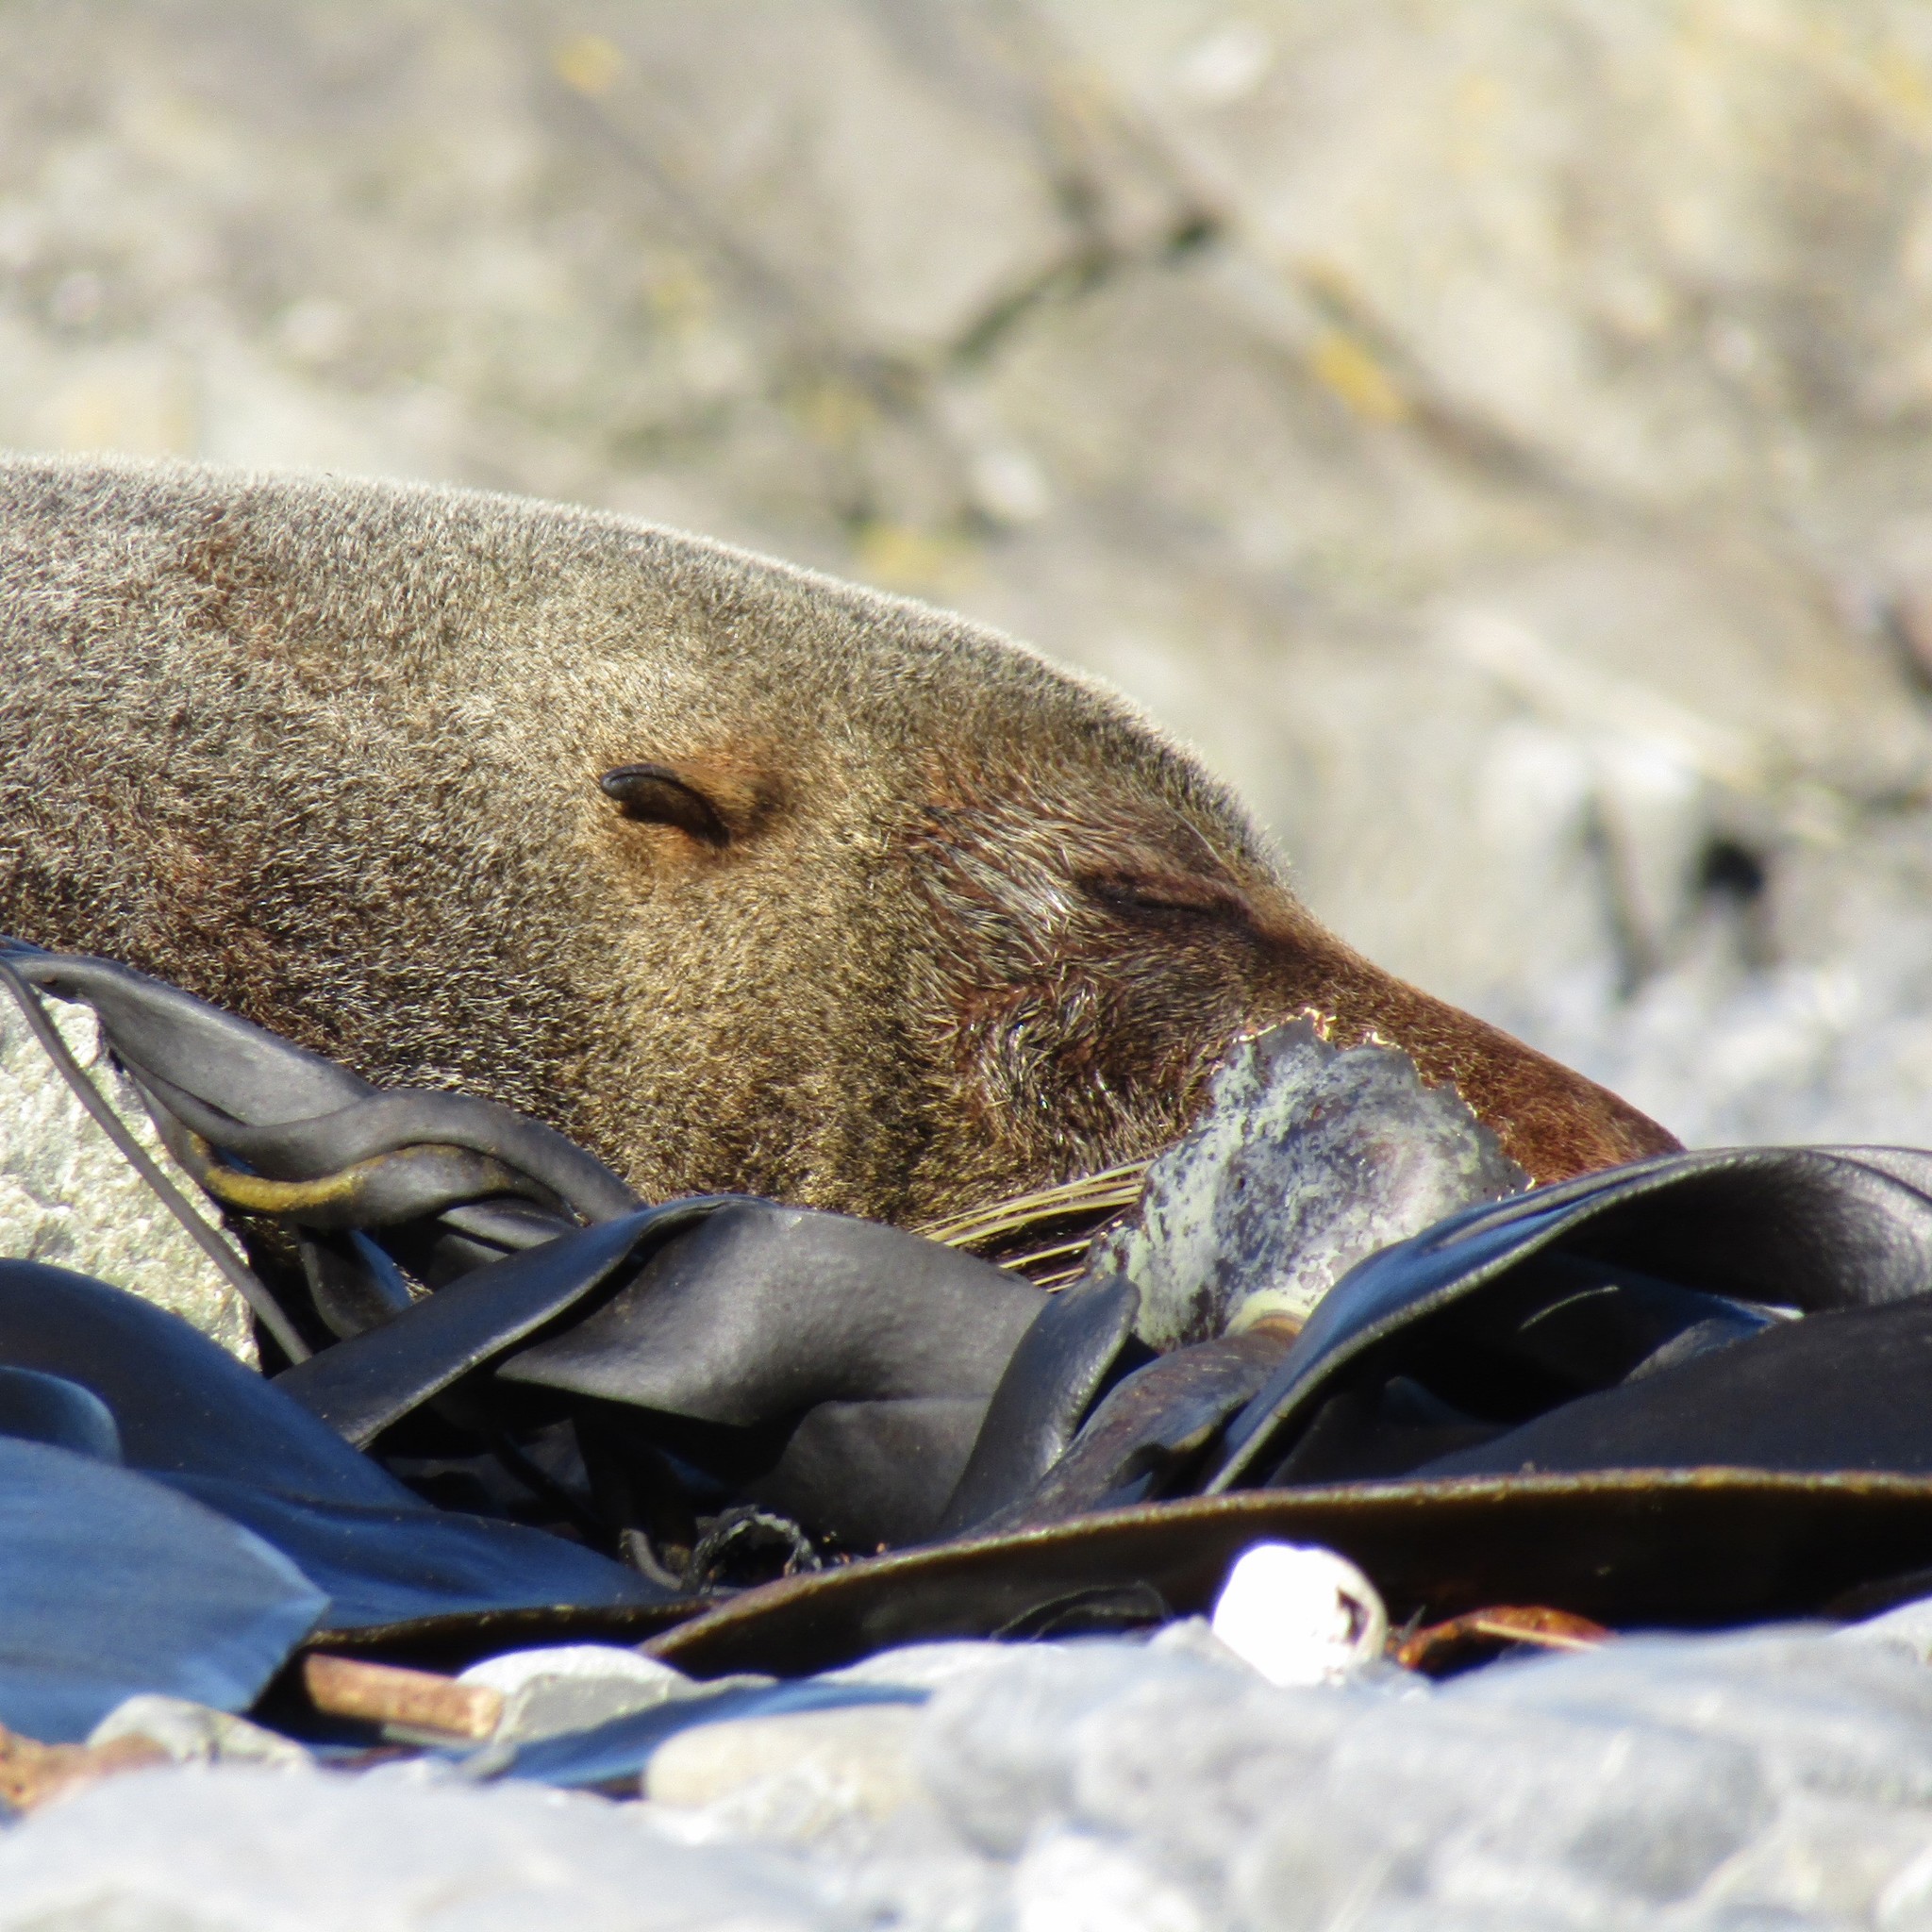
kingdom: Animalia
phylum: Chordata
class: Mammalia
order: Carnivora
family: Otariidae
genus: Arctocephalus
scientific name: Arctocephalus forsteri
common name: New zealand fur seal
